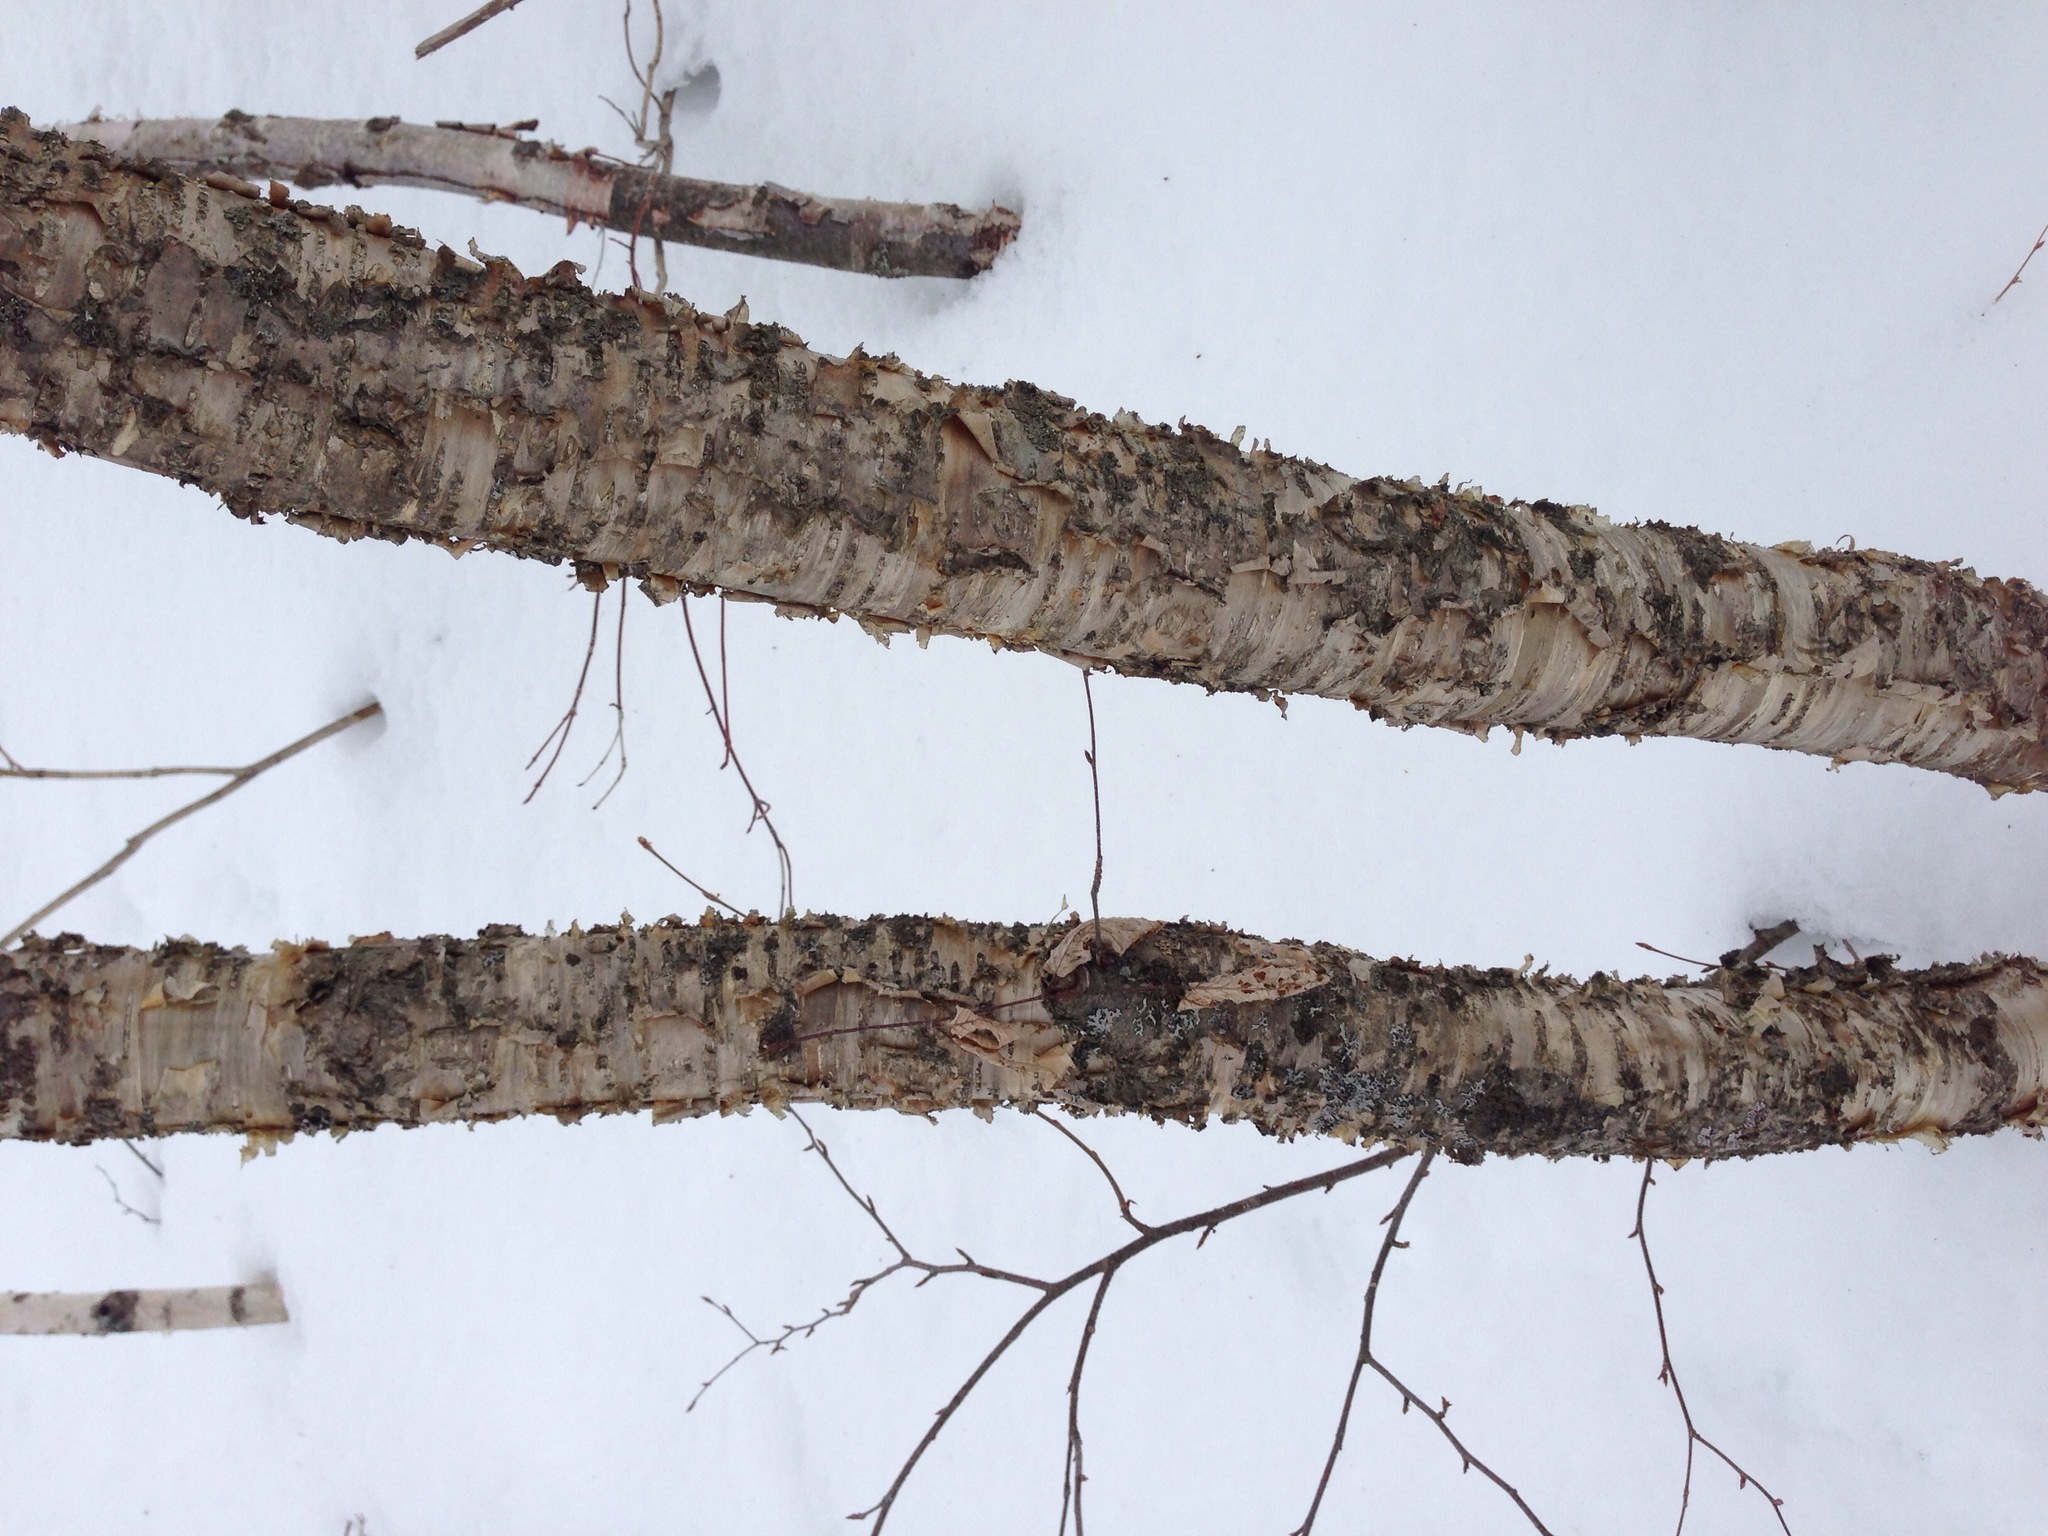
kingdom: Plantae
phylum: Tracheophyta
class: Magnoliopsida
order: Fagales
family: Betulaceae
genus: Betula
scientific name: Betula alleghaniensis
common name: Yellow birch
